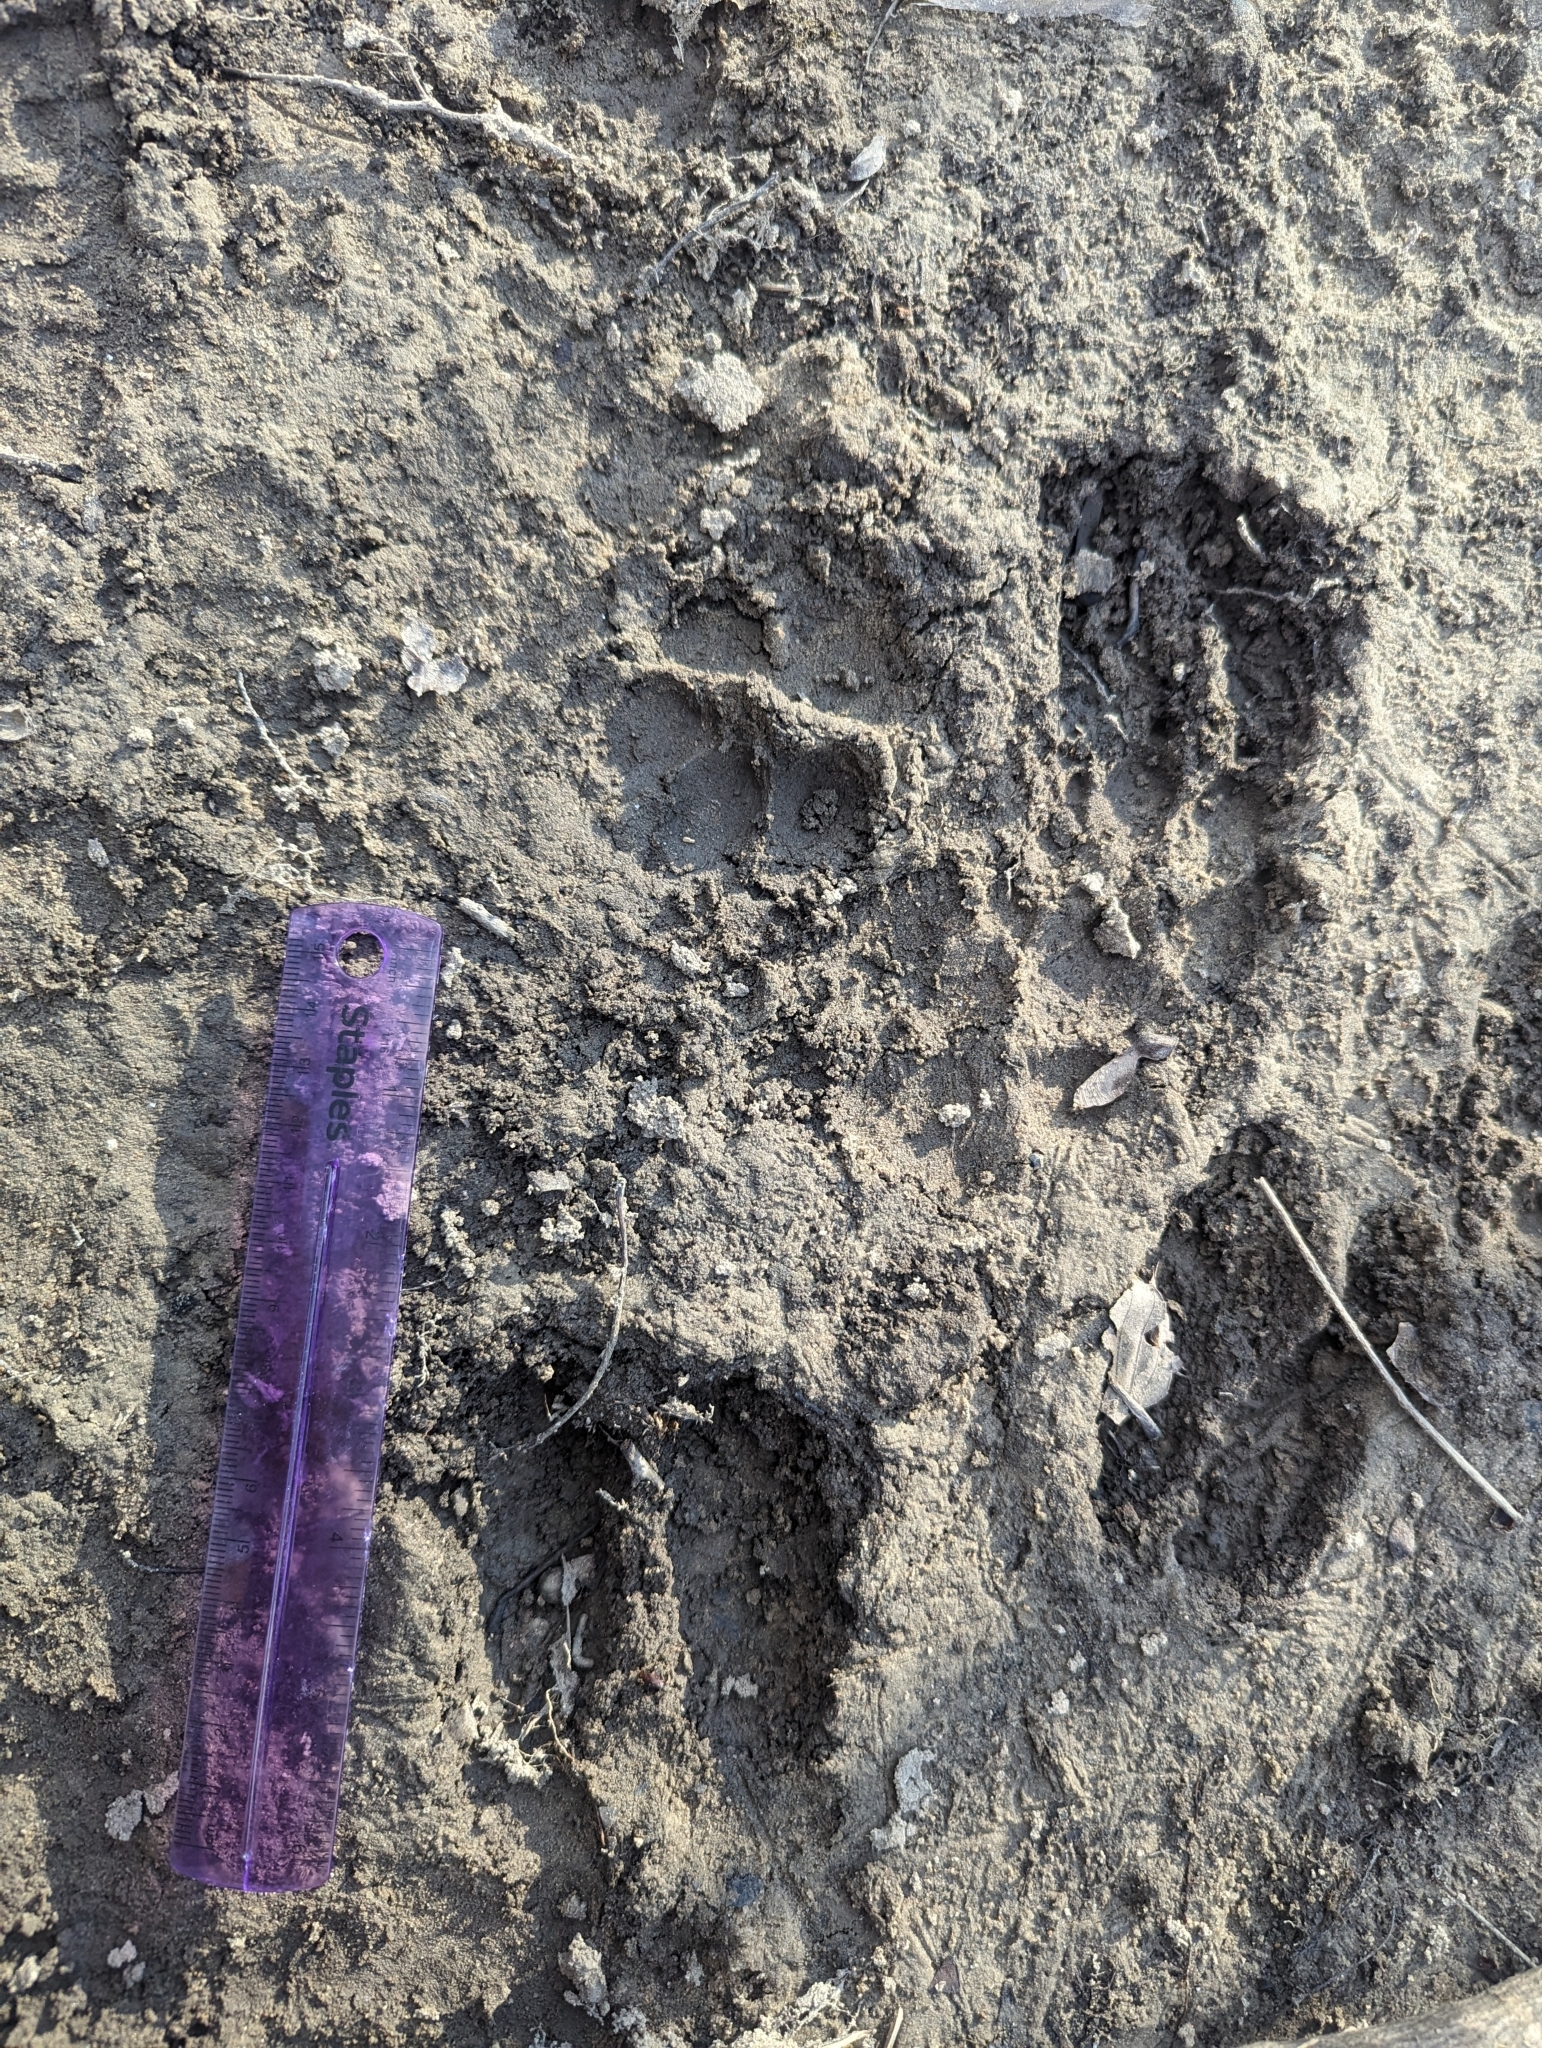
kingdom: Animalia
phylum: Chordata
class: Mammalia
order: Artiodactyla
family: Cervidae
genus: Odocoileus
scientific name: Odocoileus virginianus
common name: White-tailed deer
